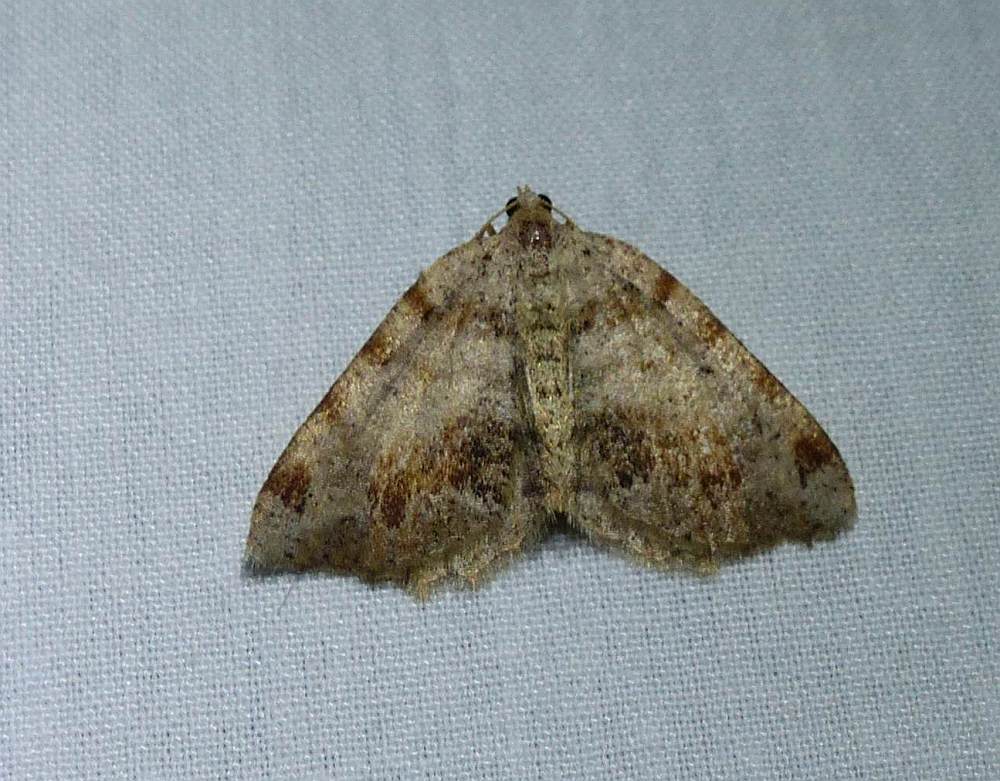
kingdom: Animalia
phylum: Arthropoda
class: Insecta
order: Lepidoptera
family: Geometridae
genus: Macaria
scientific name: Macaria exauspicata
